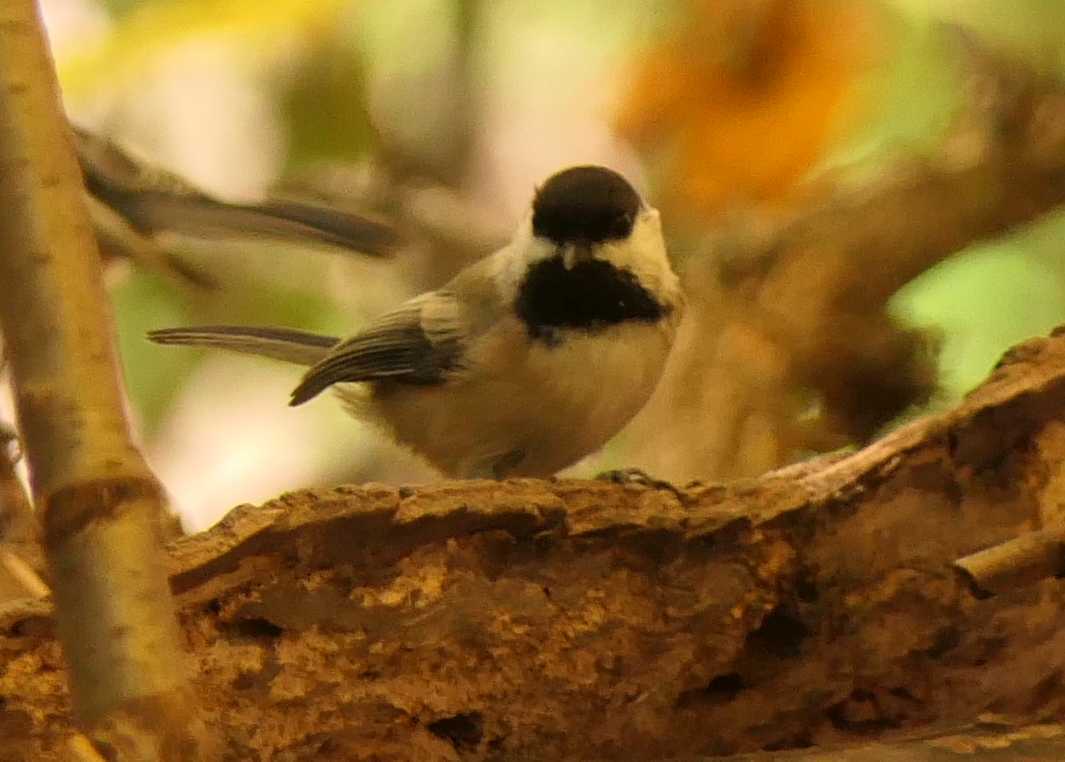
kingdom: Animalia
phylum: Chordata
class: Aves
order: Passeriformes
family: Paridae
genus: Poecile
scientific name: Poecile atricapillus
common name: Black-capped chickadee
